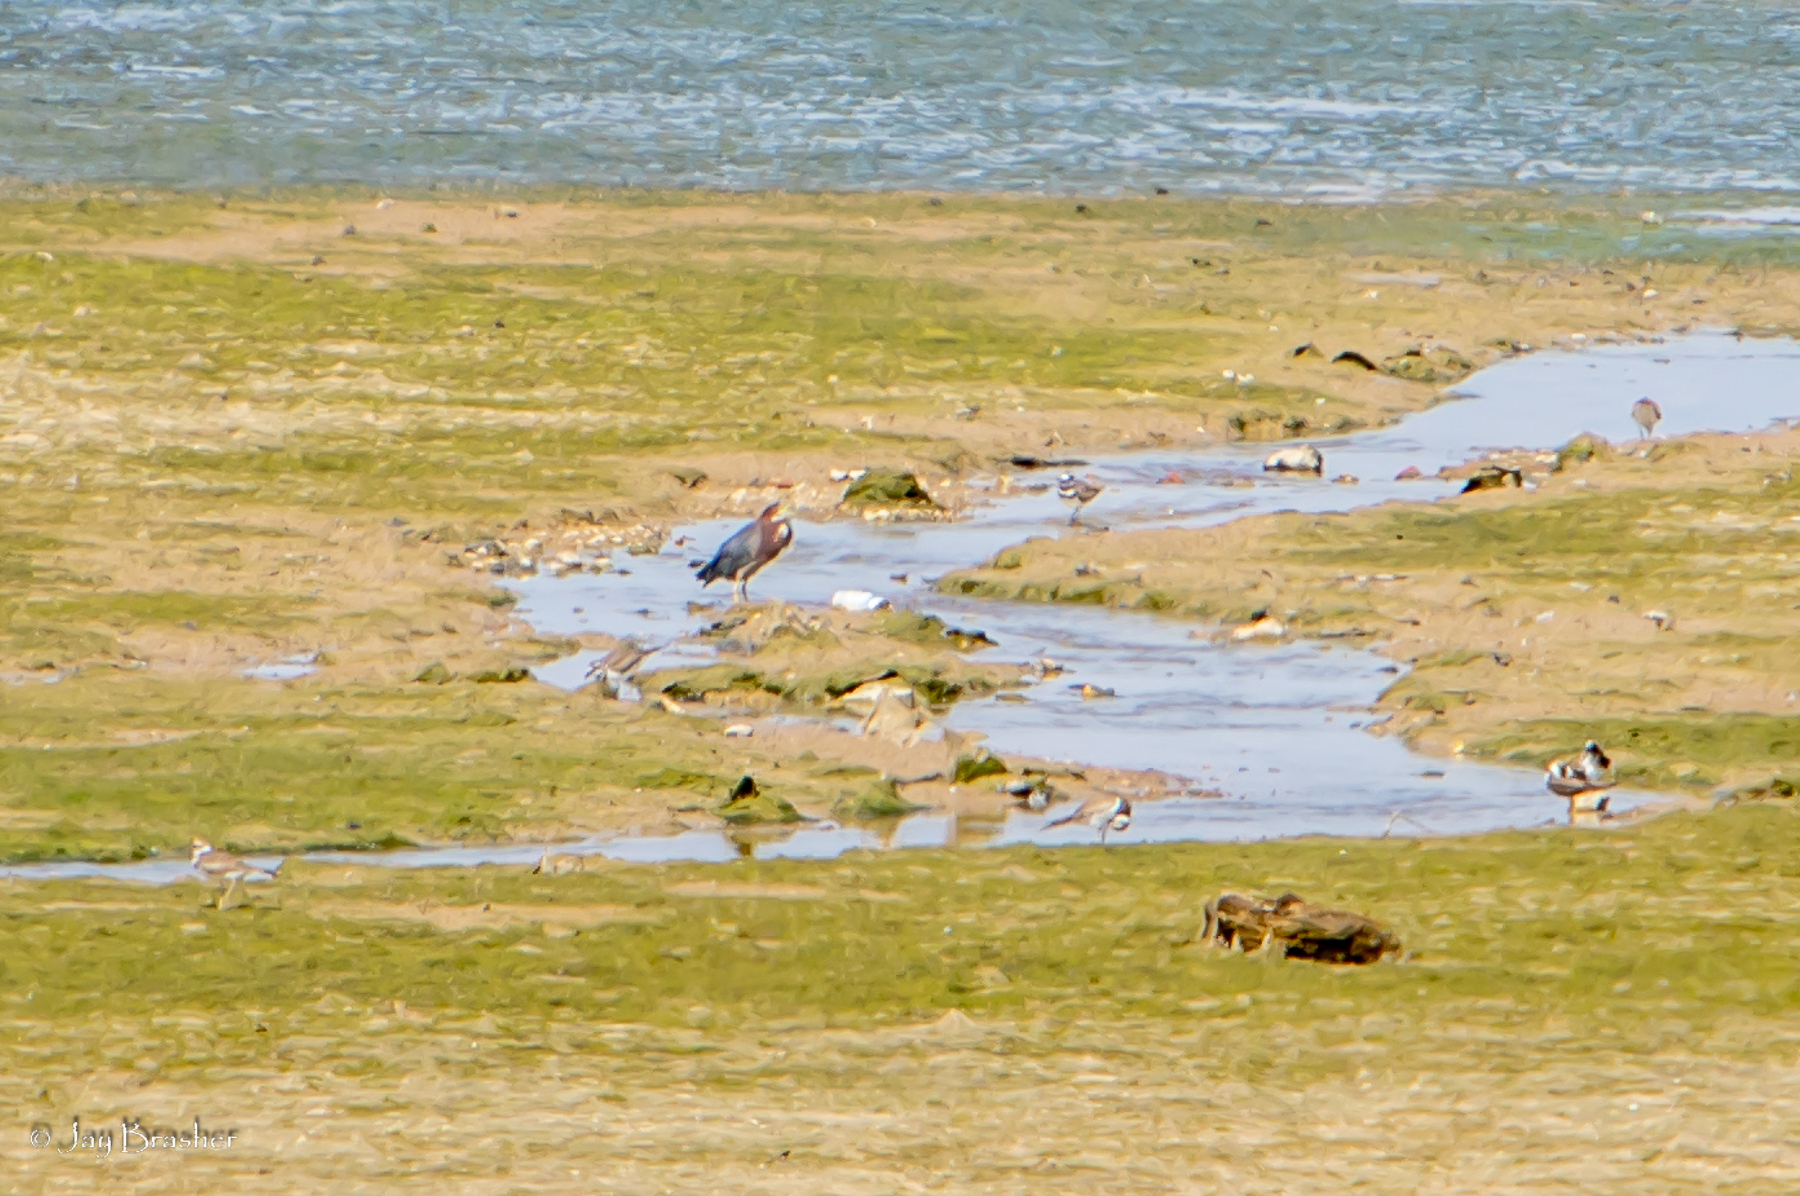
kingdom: Animalia
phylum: Chordata
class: Aves
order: Pelecaniformes
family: Ardeidae
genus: Butorides
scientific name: Butorides virescens
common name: Green heron
